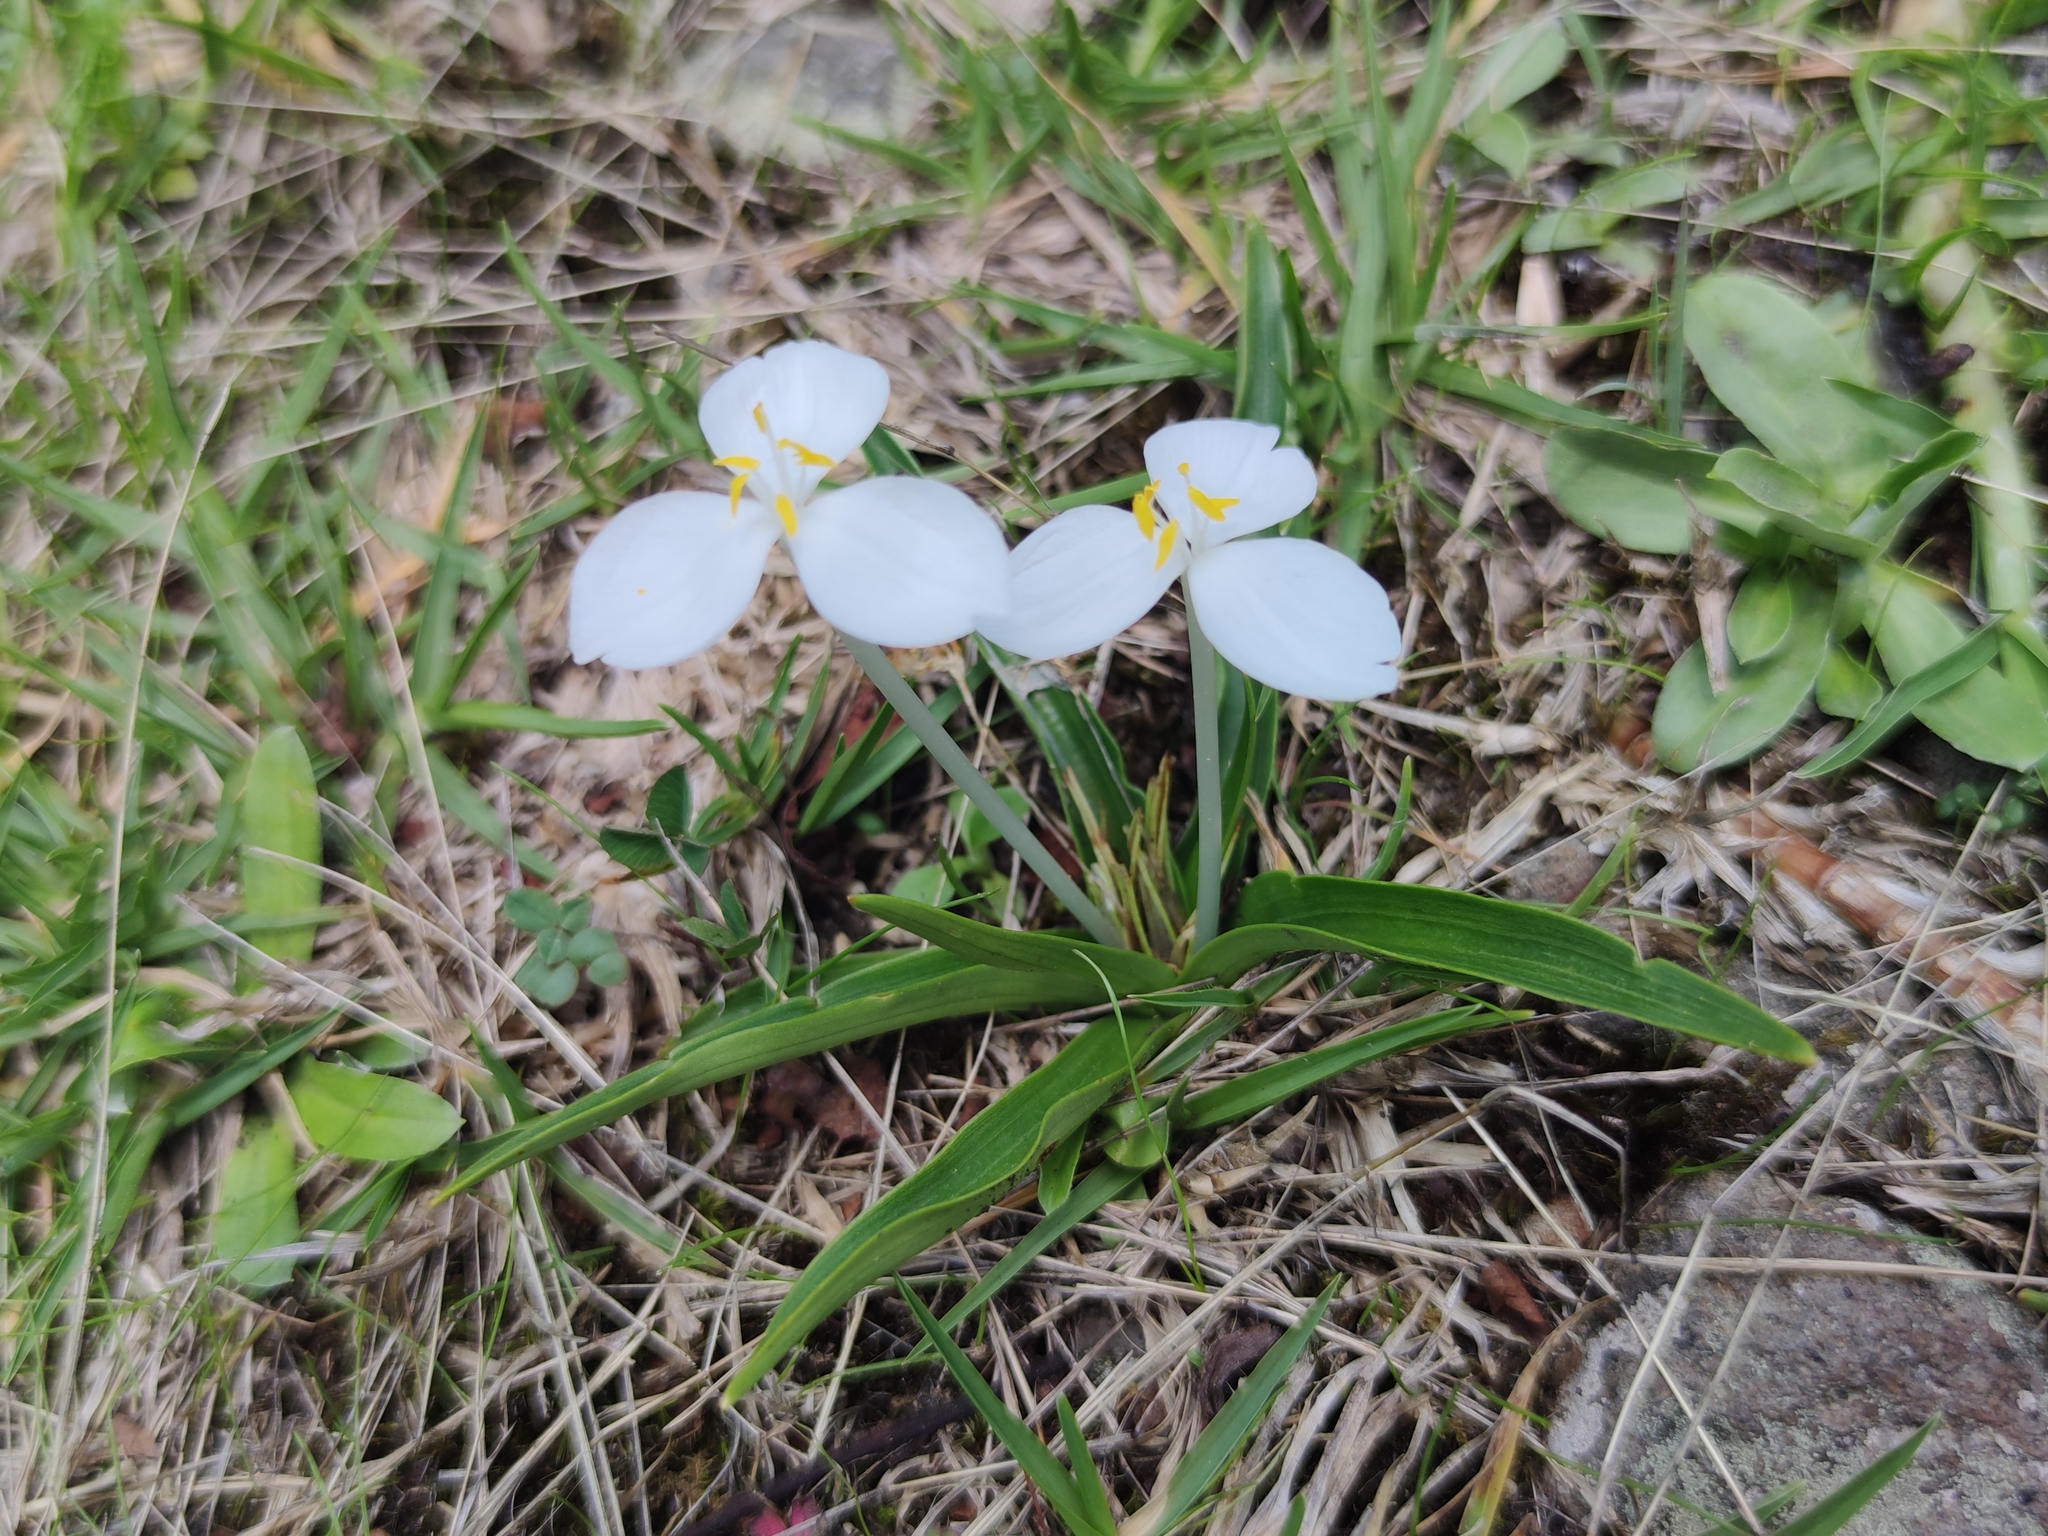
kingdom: Plantae
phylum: Tracheophyta
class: Liliopsida
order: Commelinales
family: Commelinaceae
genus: Weldenia
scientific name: Weldenia candida
